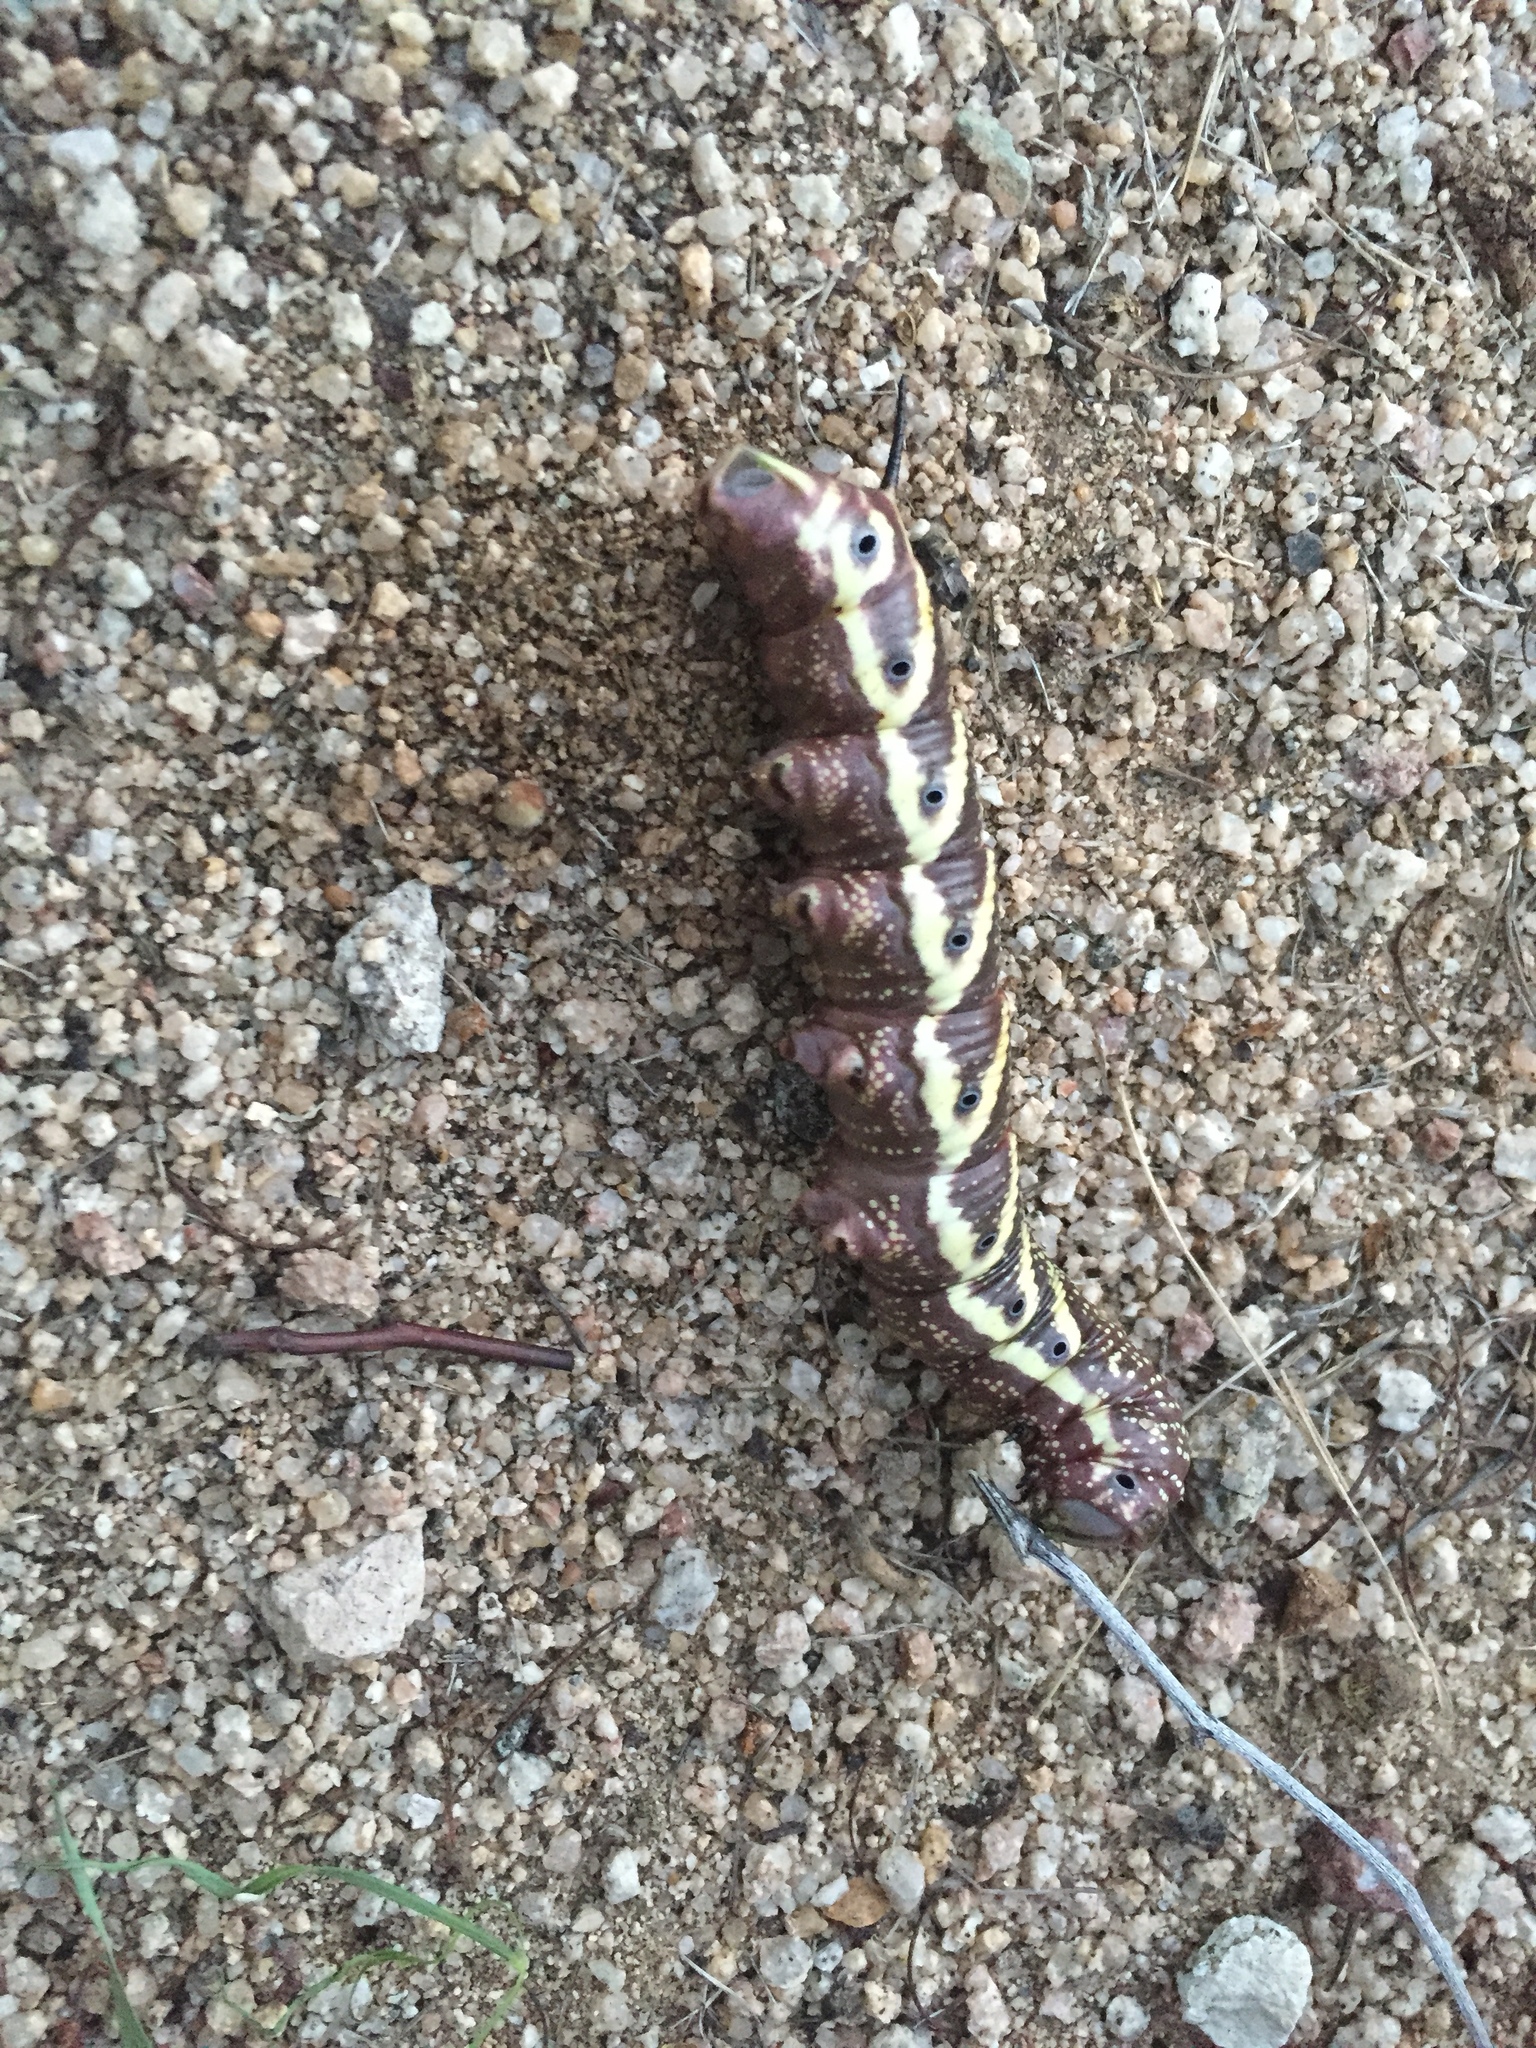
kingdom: Animalia
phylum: Arthropoda
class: Insecta
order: Lepidoptera
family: Sphingidae
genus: Manduca
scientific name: Manduca quinquemaculatus
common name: Five-spotted hawk-moth
